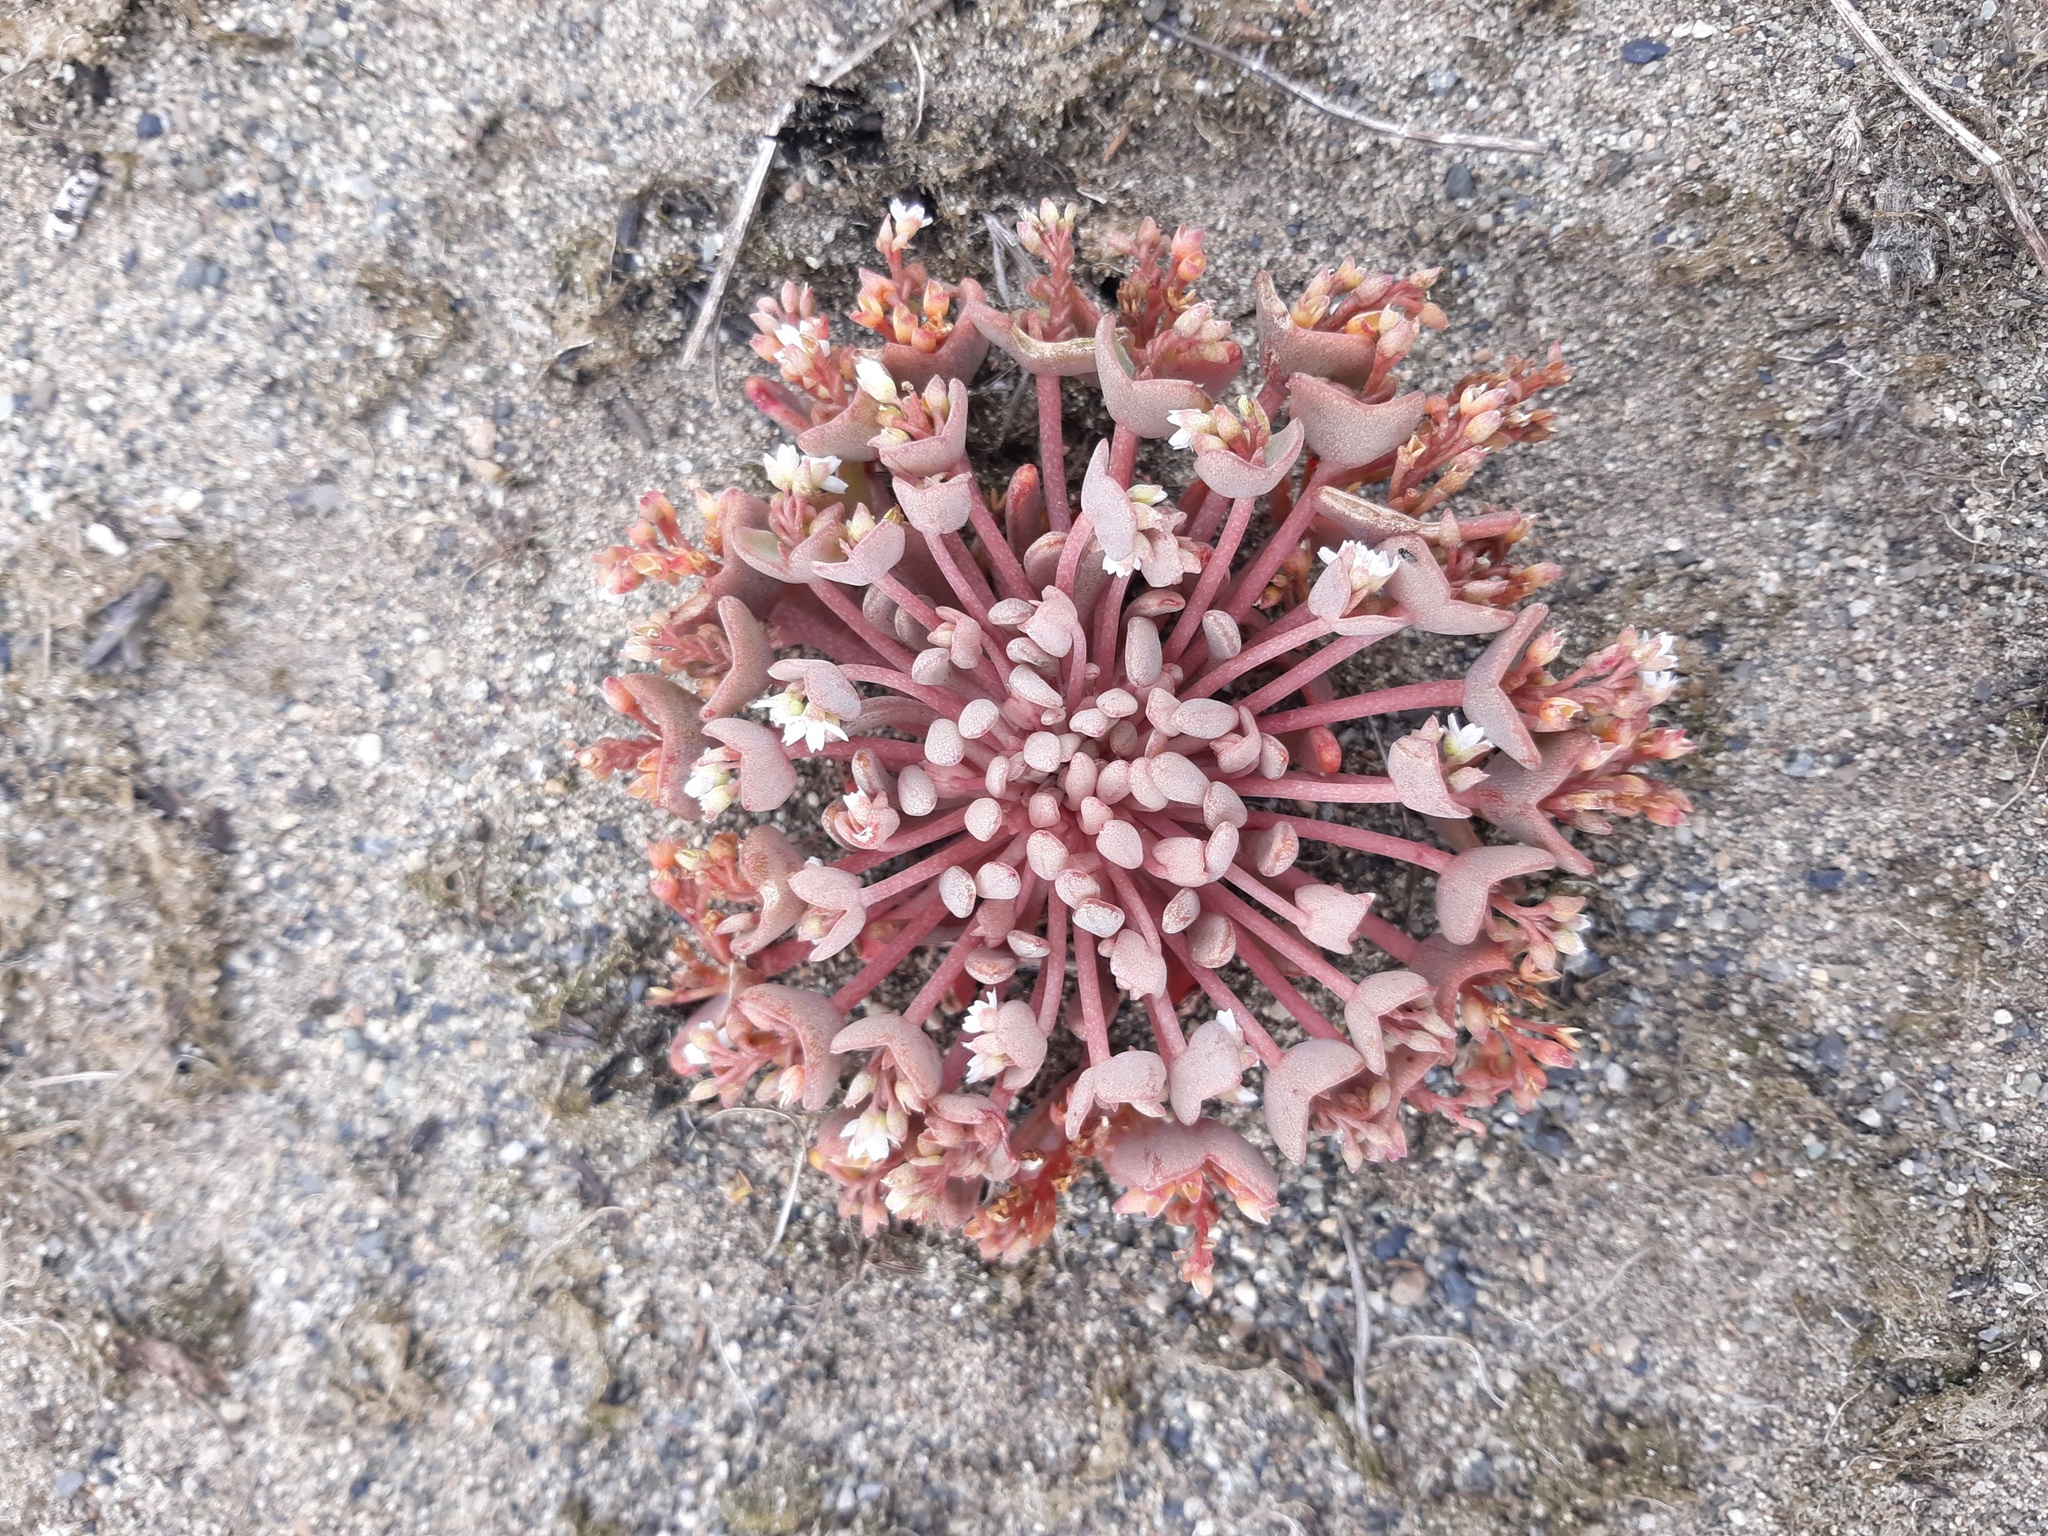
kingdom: Plantae
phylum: Tracheophyta
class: Magnoliopsida
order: Caryophyllales
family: Montiaceae
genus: Claytonia
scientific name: Claytonia exigua
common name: Pale spring beauty
